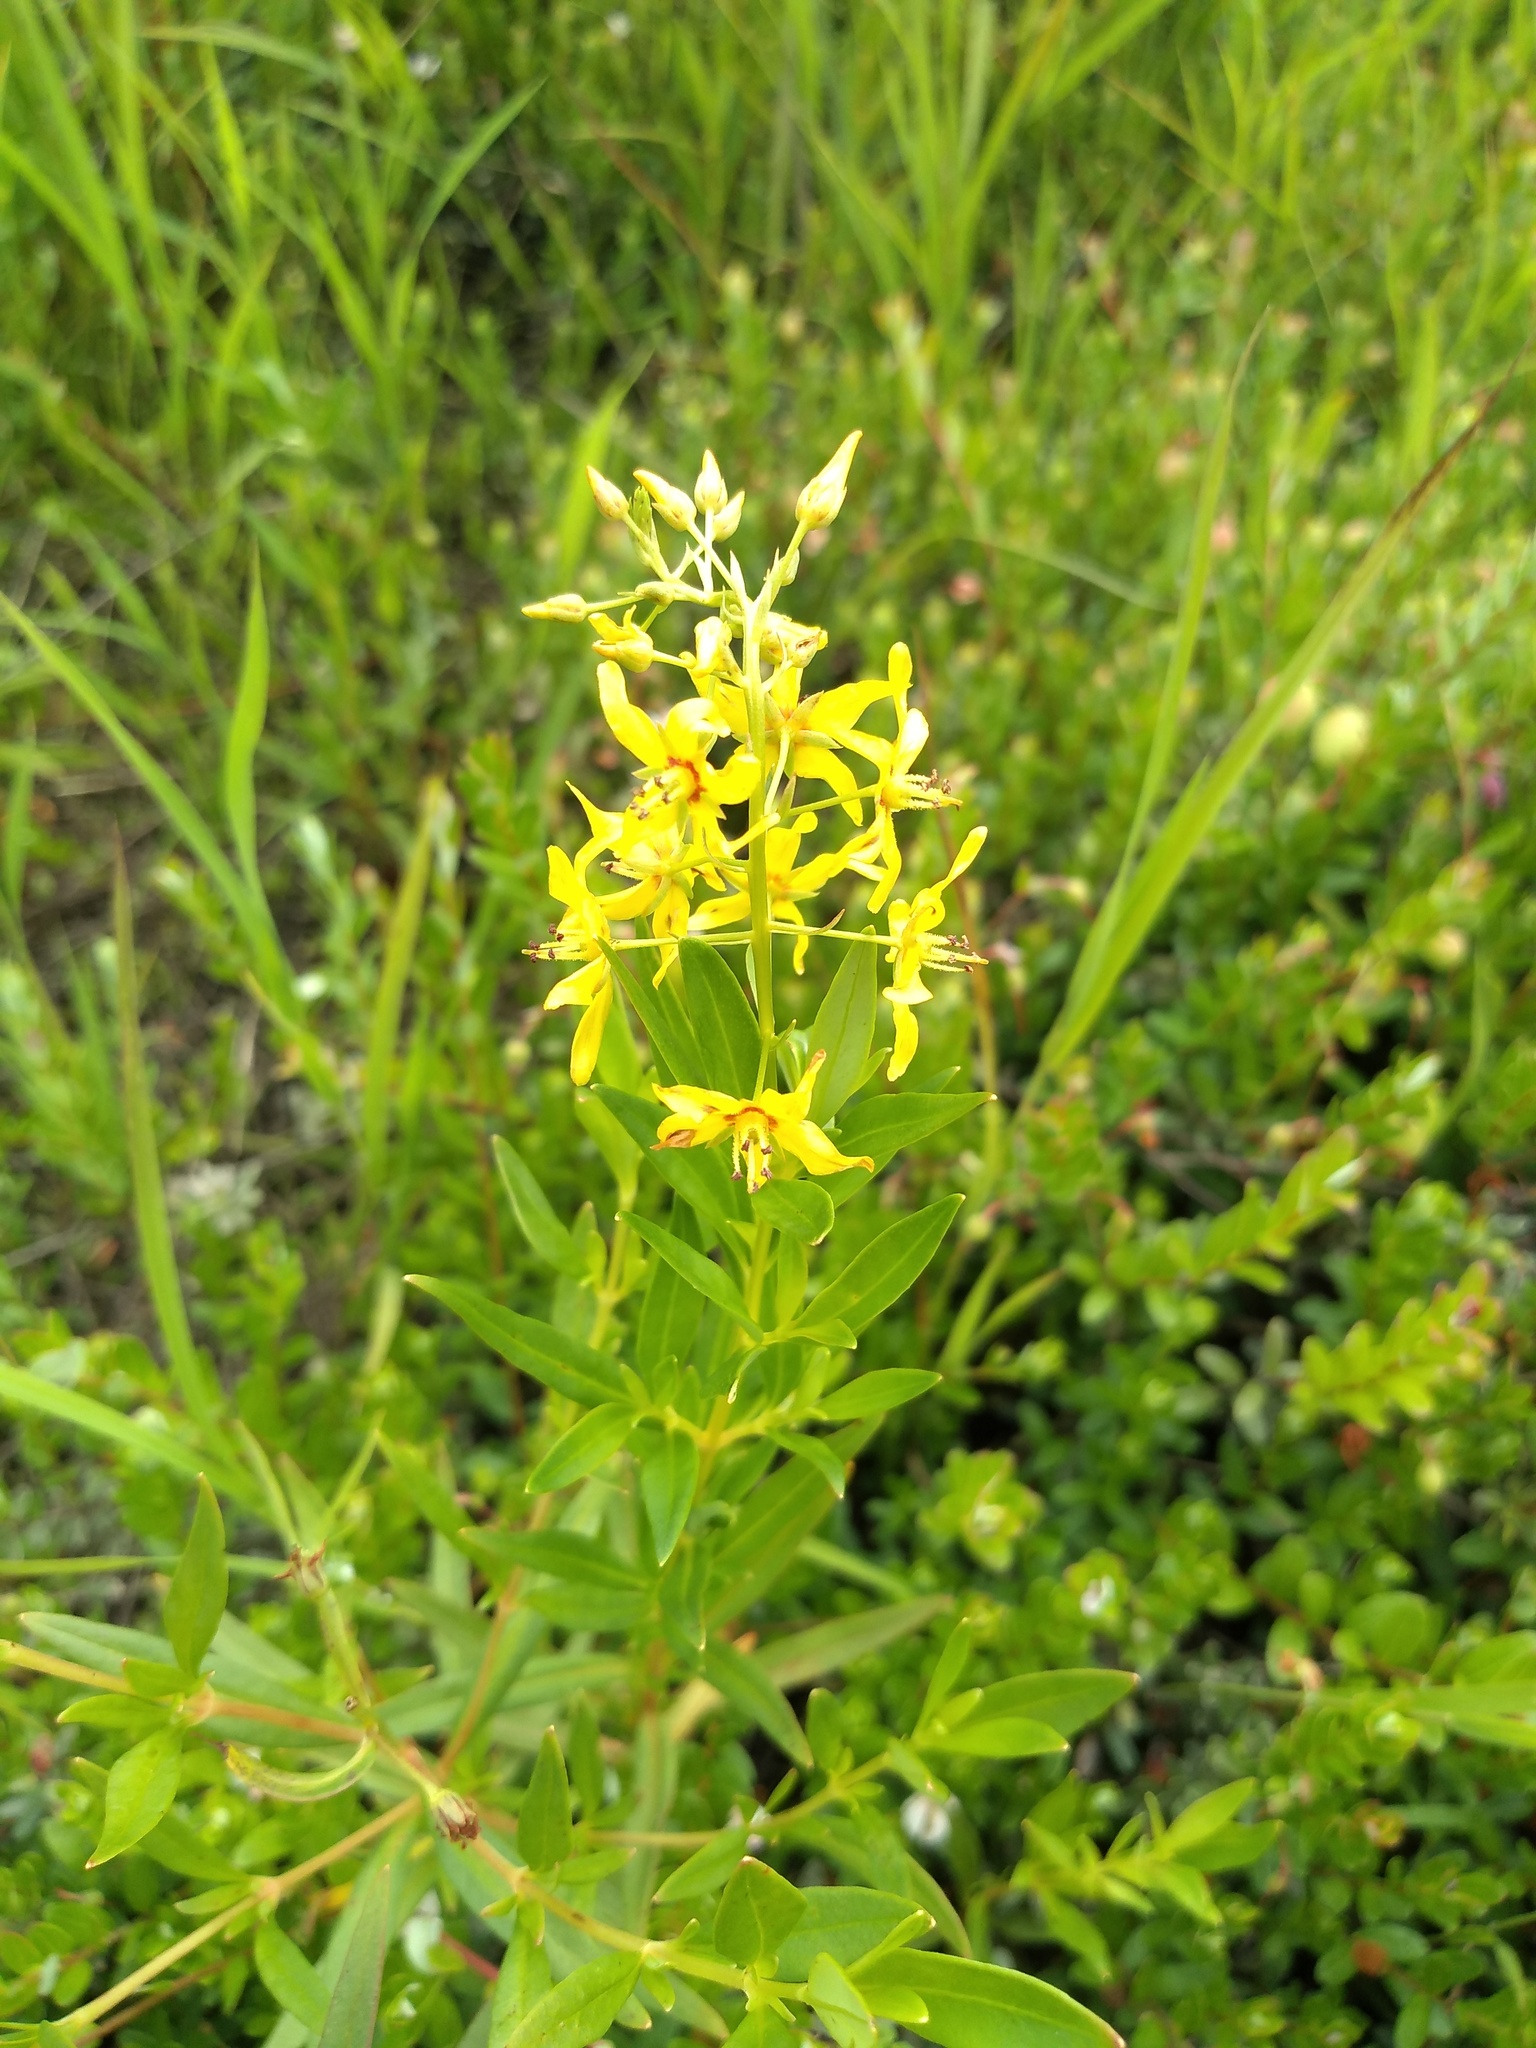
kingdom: Plantae
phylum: Tracheophyta
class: Magnoliopsida
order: Ericales
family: Primulaceae
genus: Lysimachia
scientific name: Lysimachia terrestris
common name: Lake loosestrife
